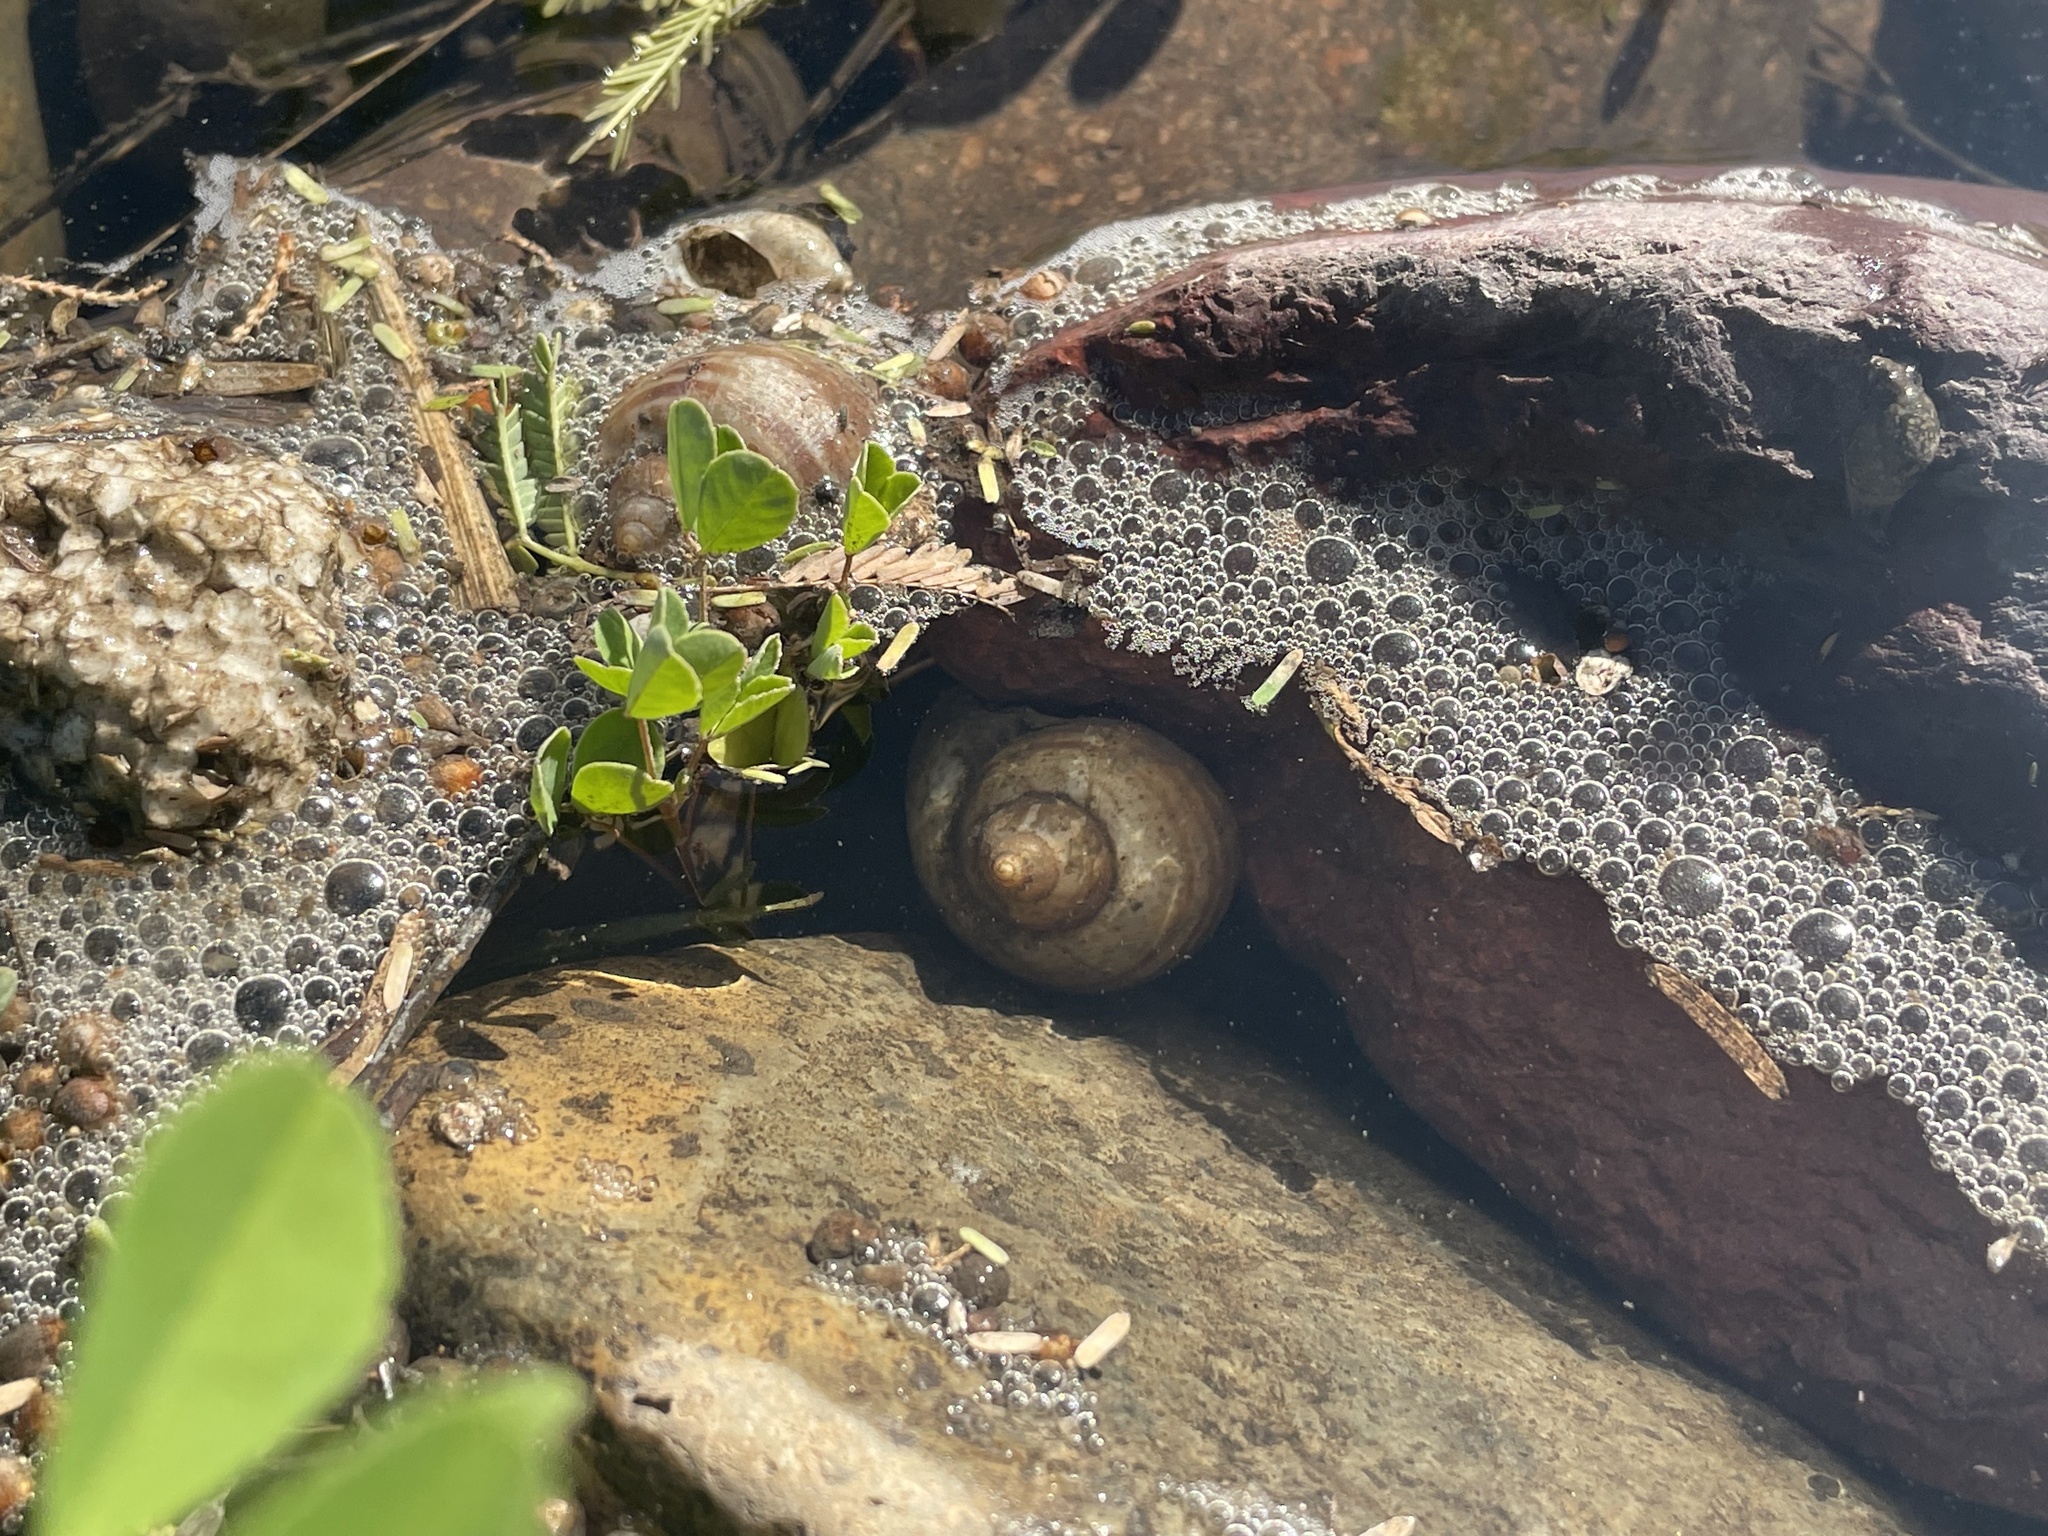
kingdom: Animalia
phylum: Mollusca
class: Gastropoda
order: Architaenioglossa
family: Ampullariidae
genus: Pomacea
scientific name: Pomacea canaliculata
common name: Channeled applesnail
